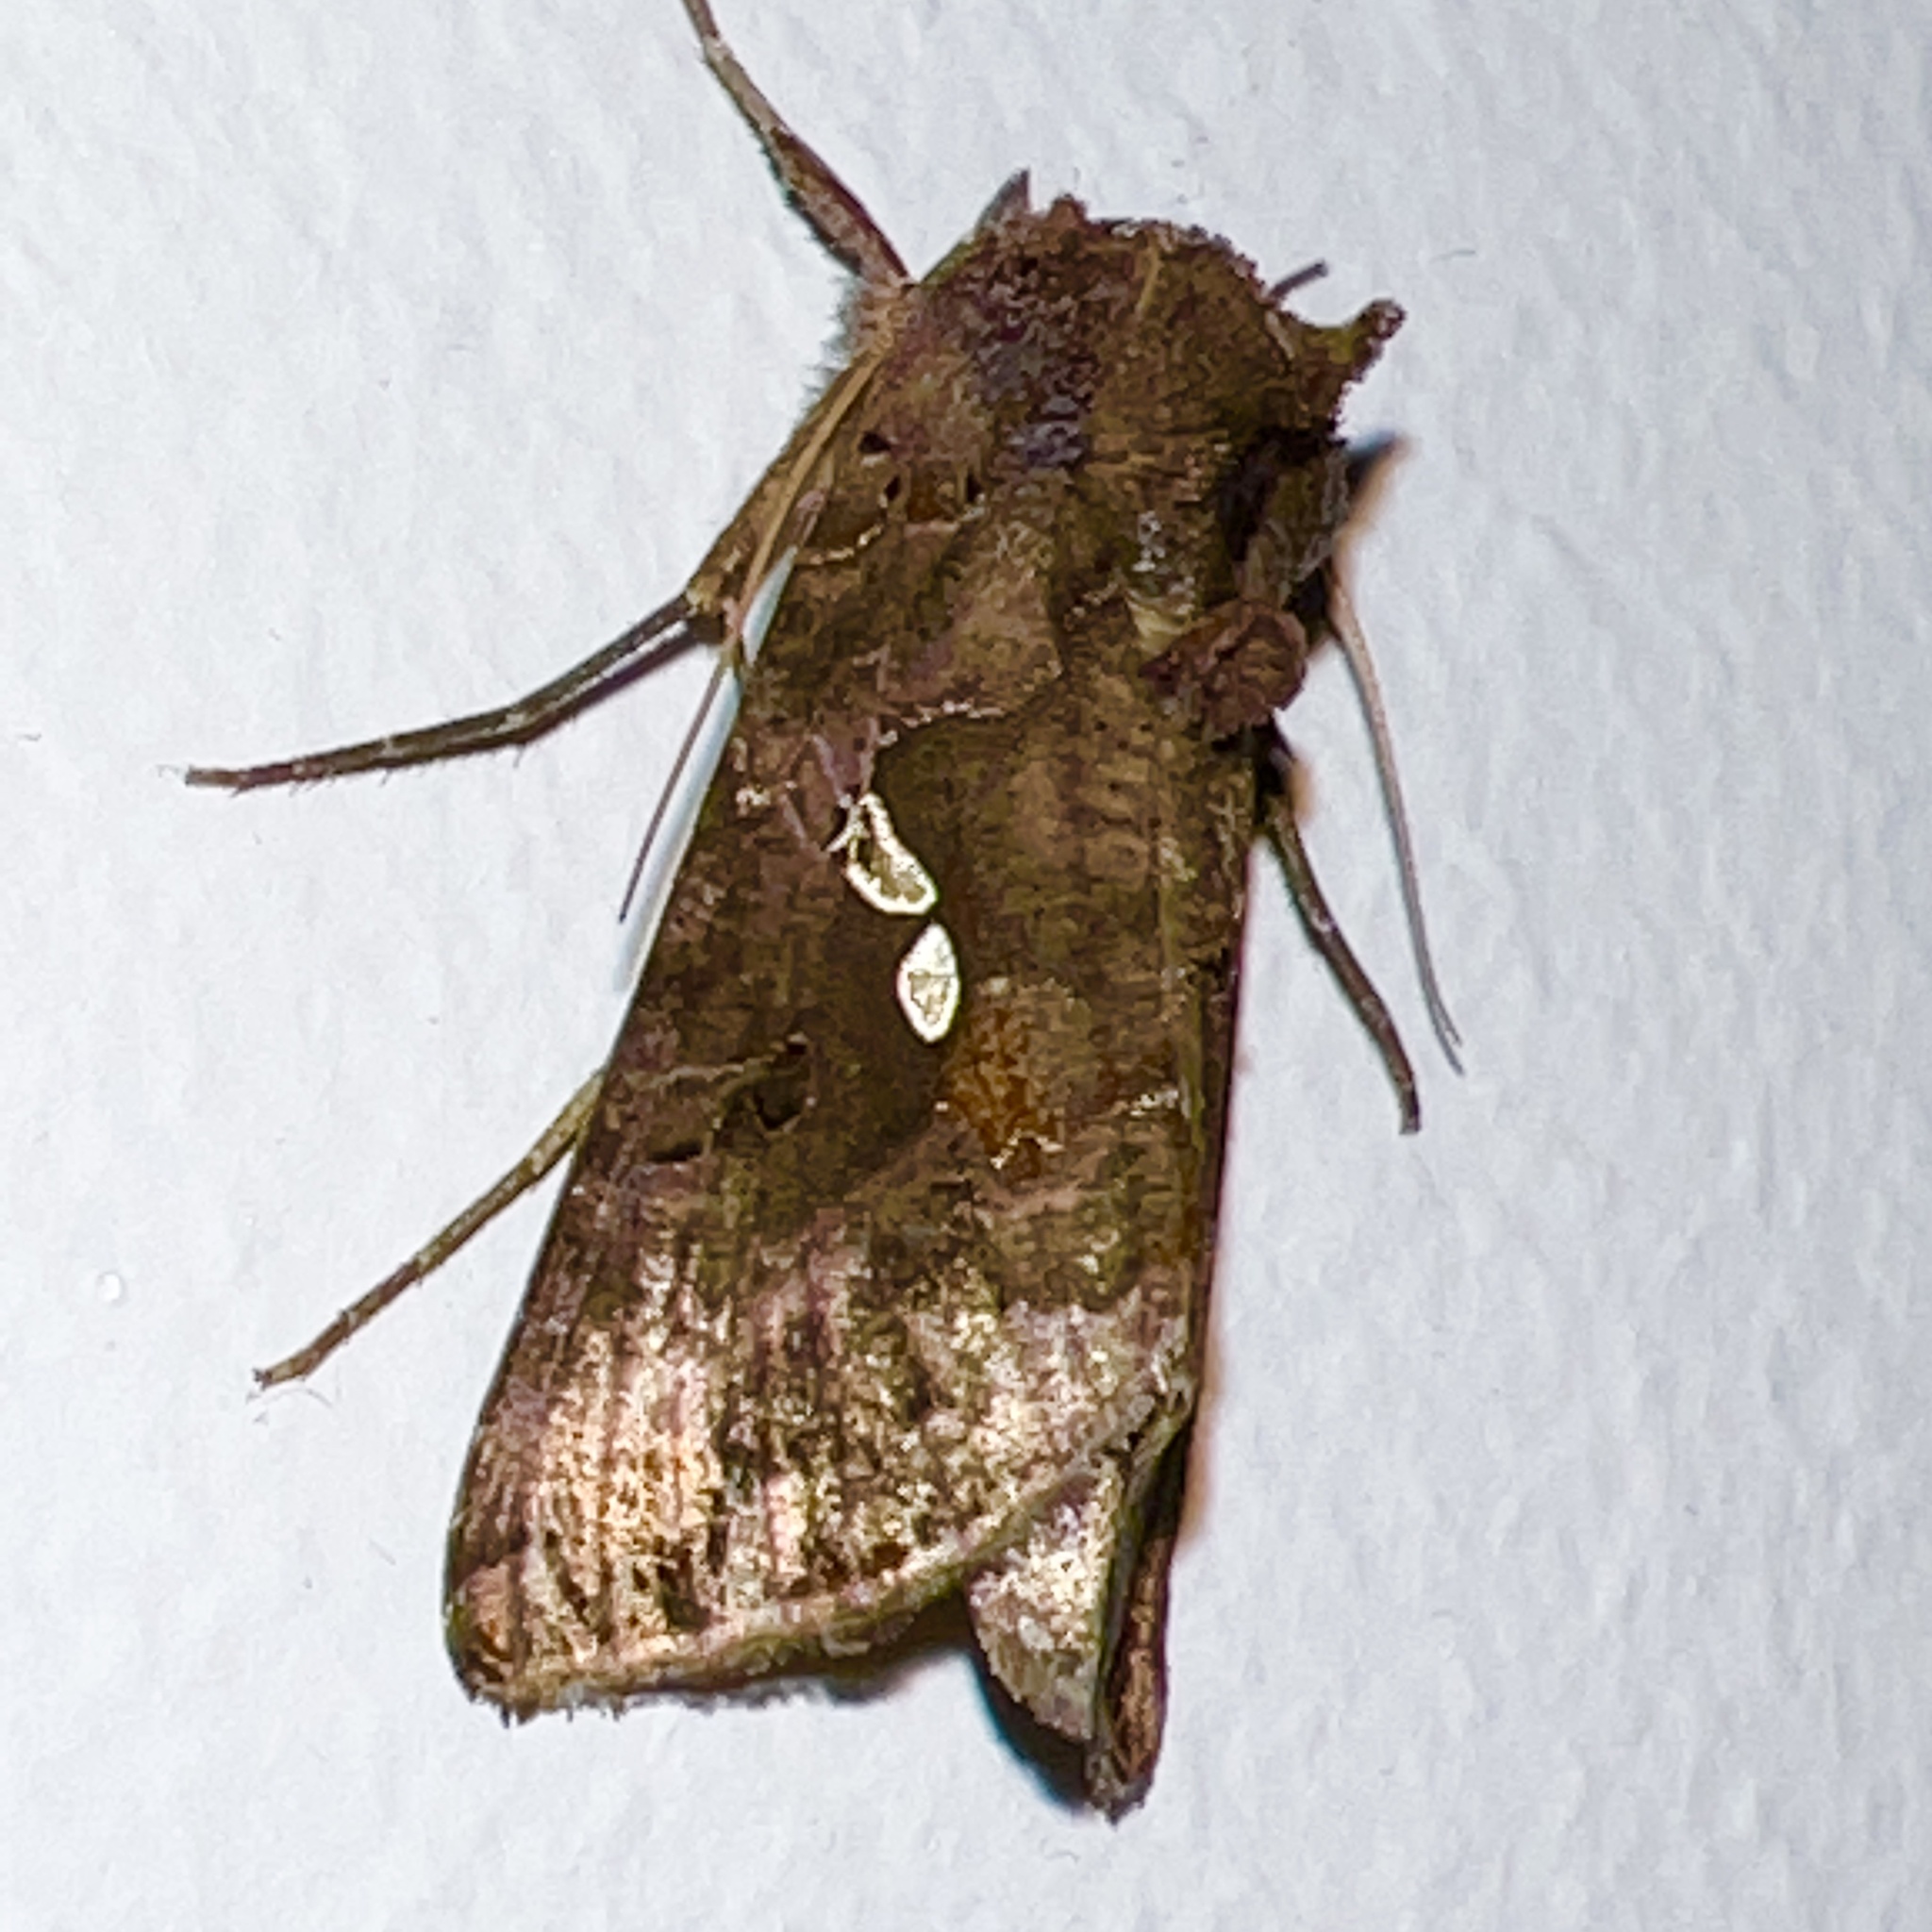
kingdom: Animalia
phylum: Arthropoda
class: Insecta
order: Lepidoptera
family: Noctuidae
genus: Autographa
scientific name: Autographa precationis
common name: Common looper moth
